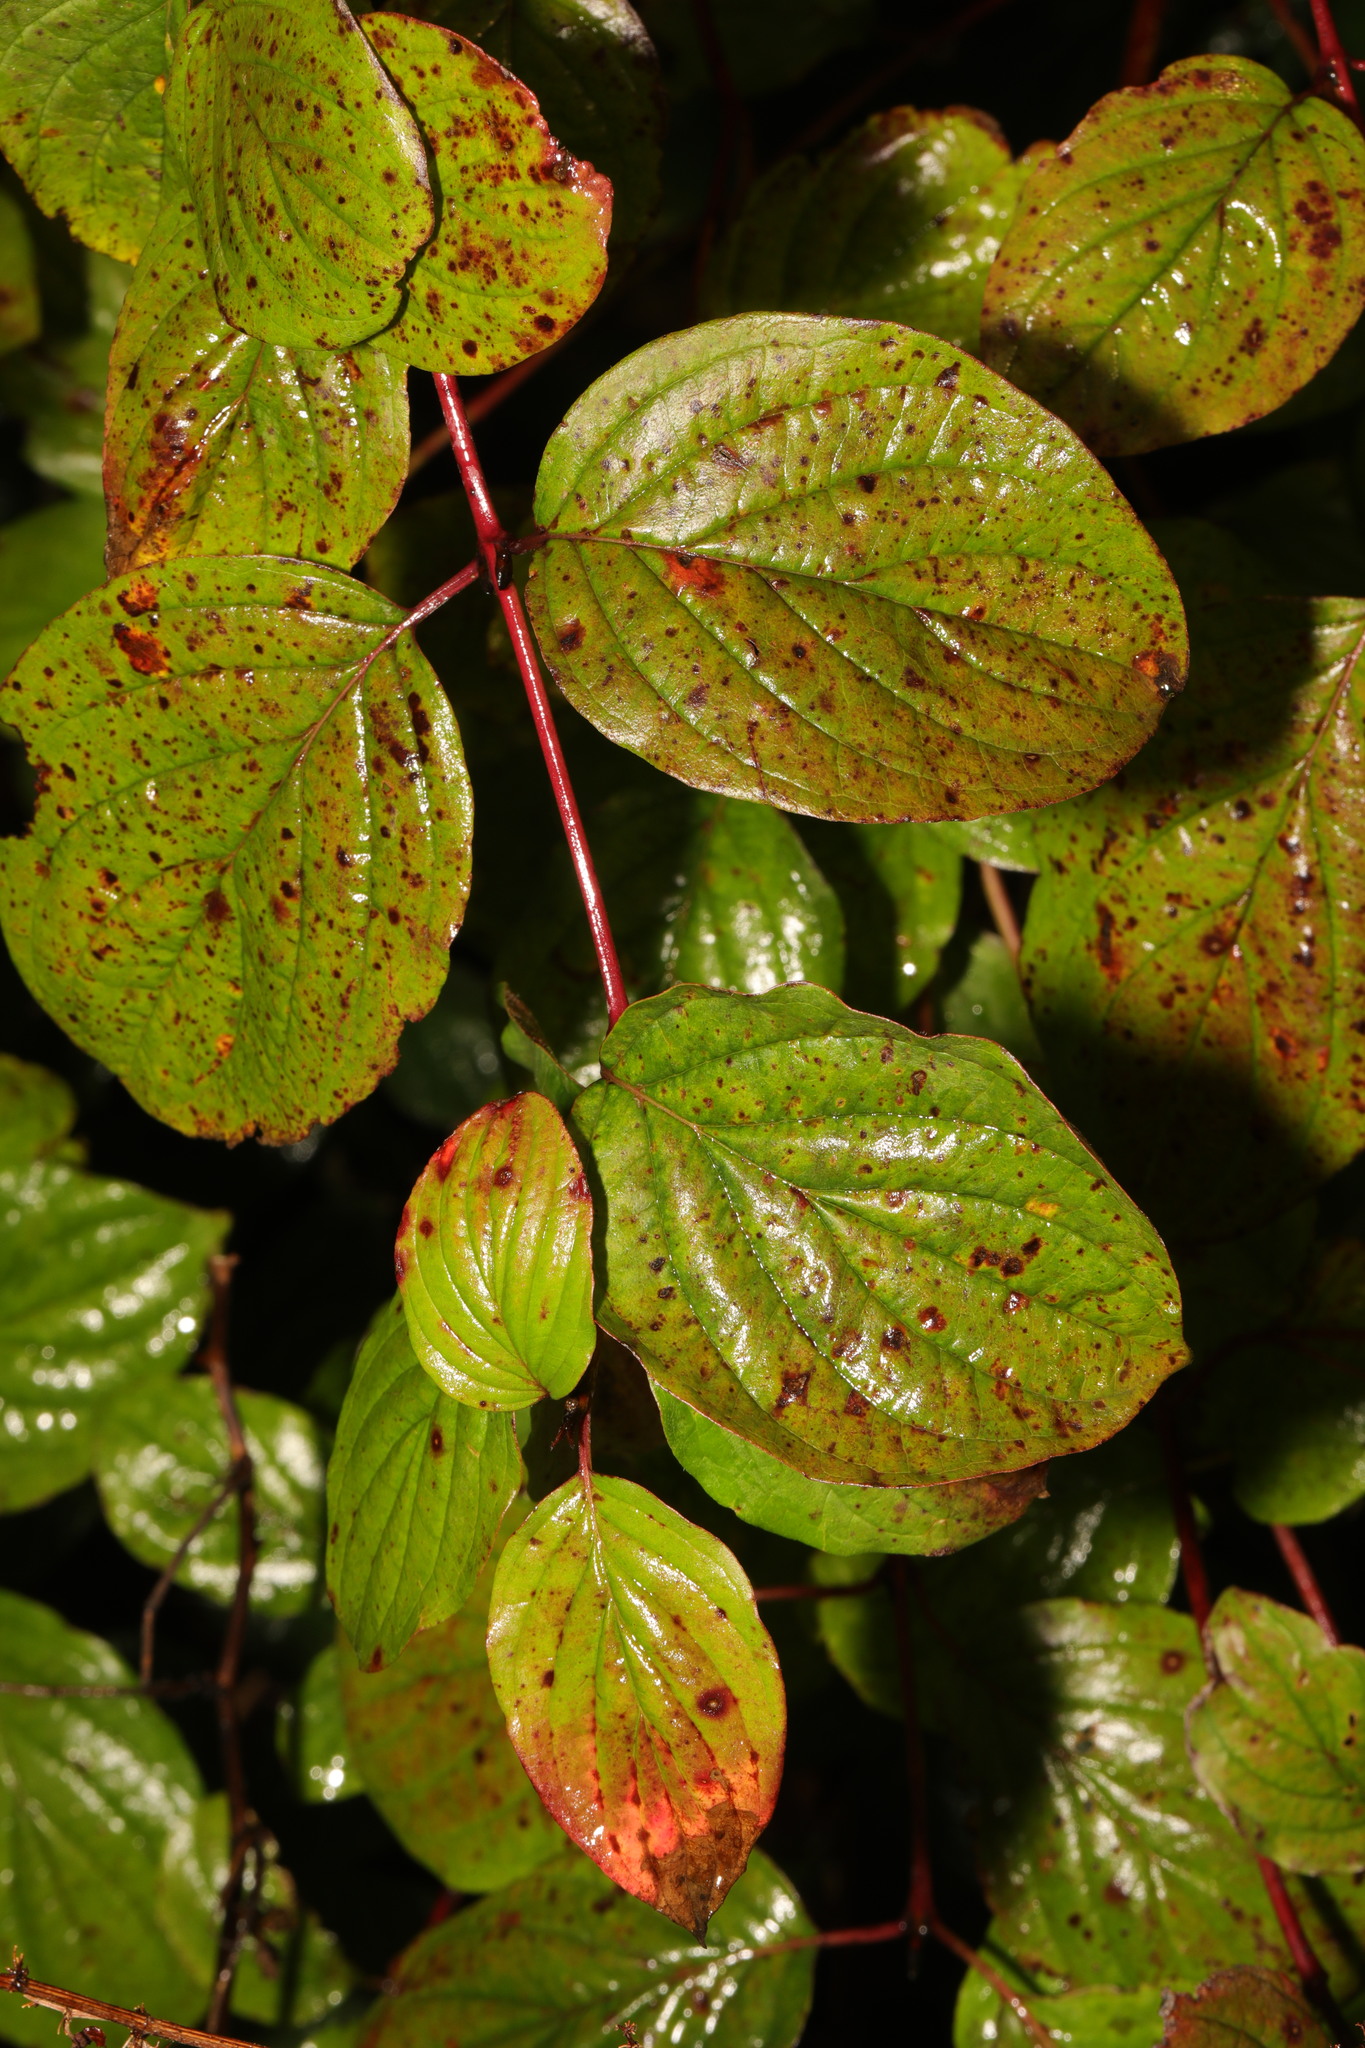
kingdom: Plantae
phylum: Tracheophyta
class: Magnoliopsida
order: Cornales
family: Cornaceae
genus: Cornus
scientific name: Cornus sanguinea
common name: Dogwood
